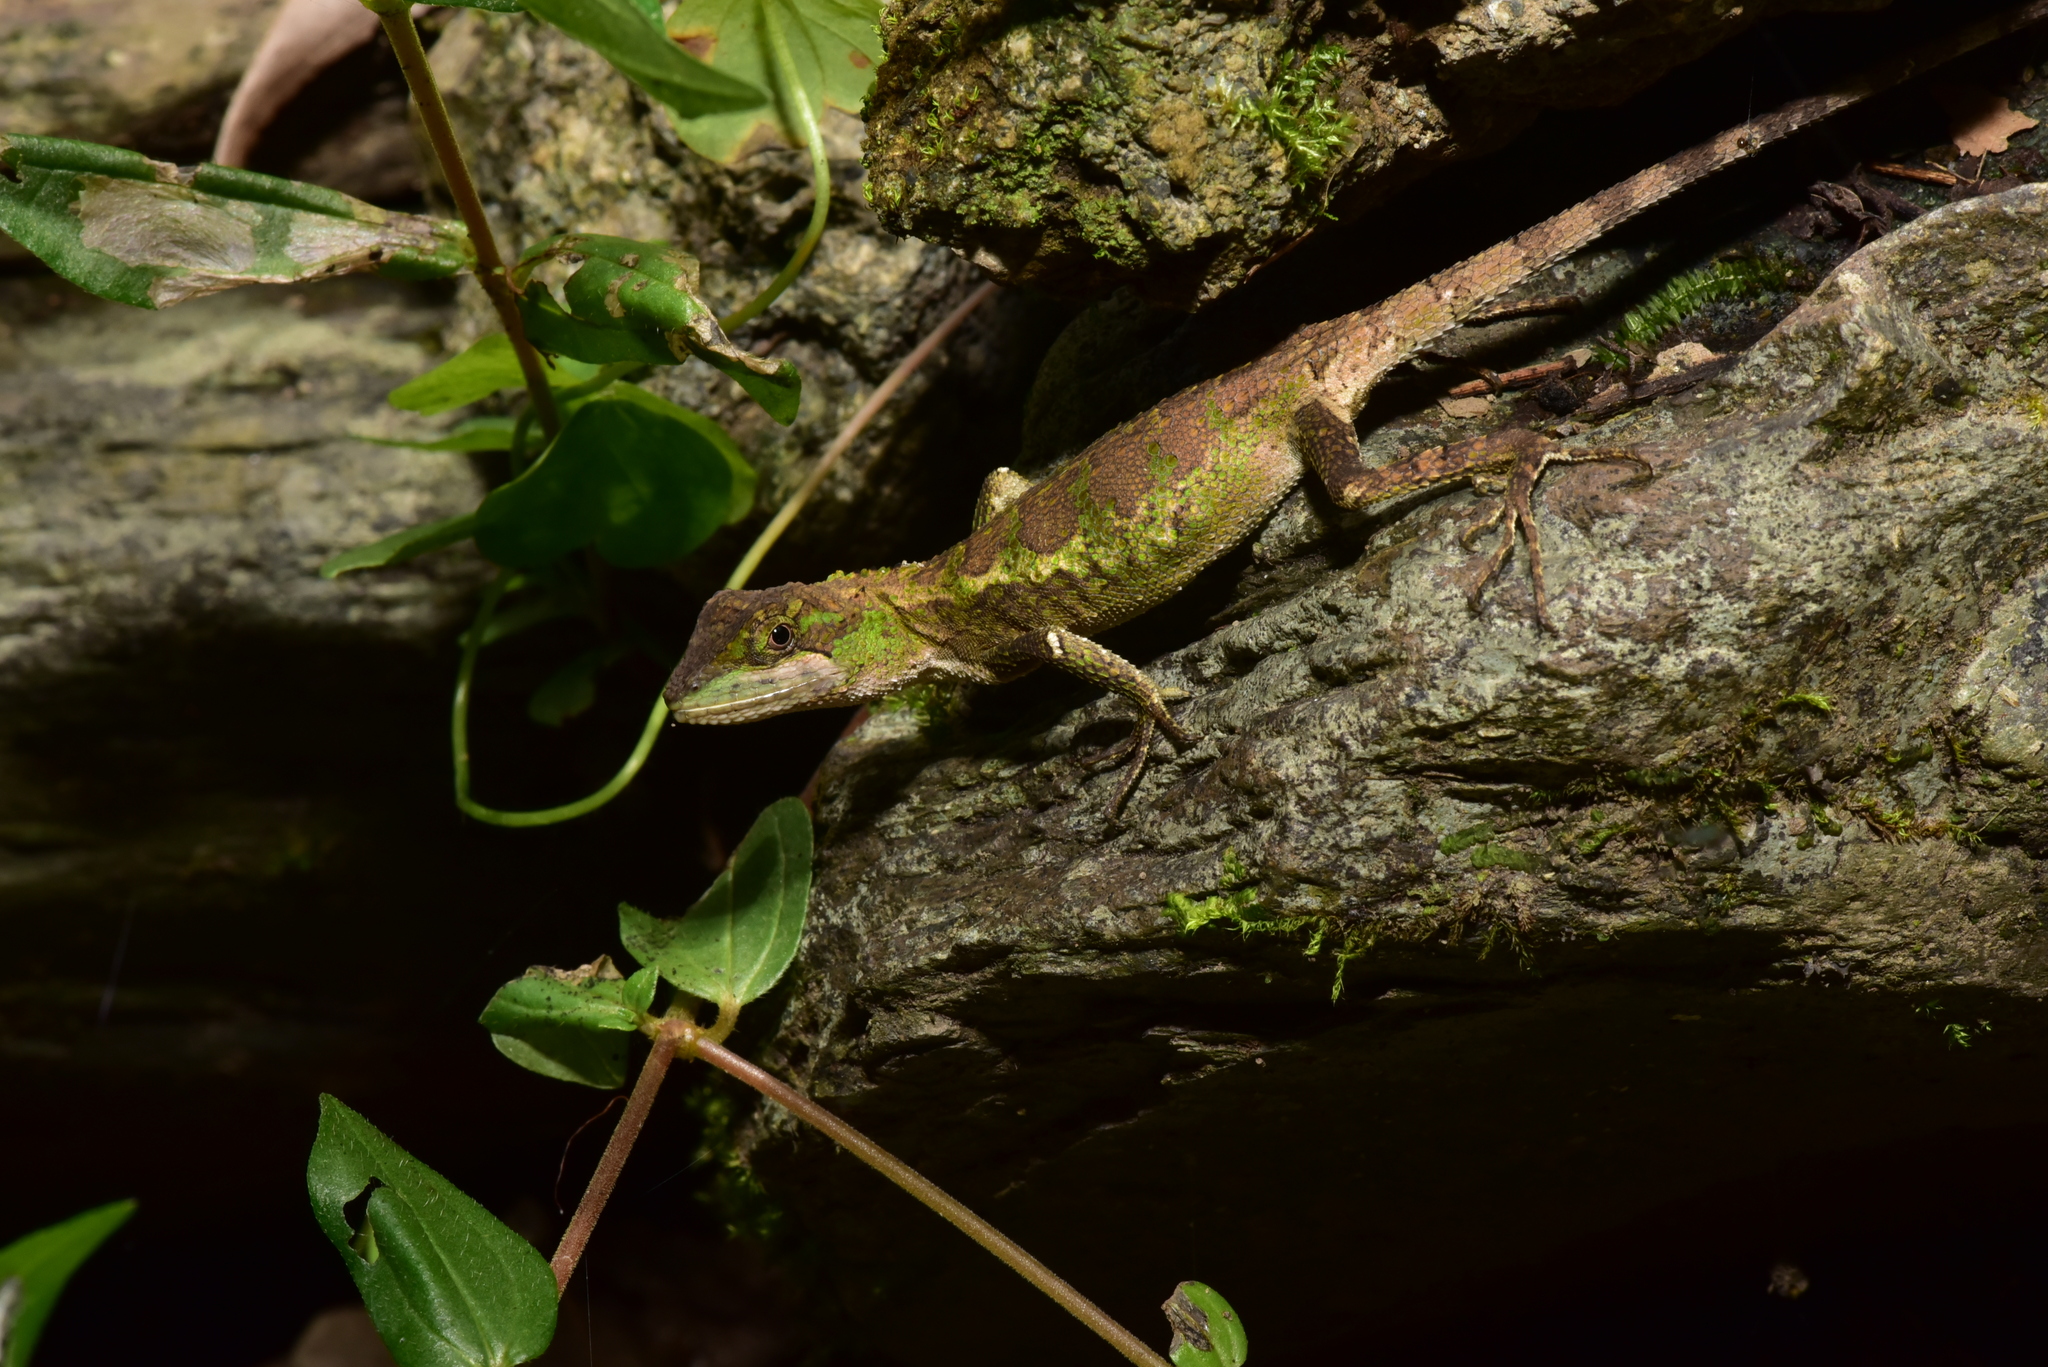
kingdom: Fungi
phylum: Basidiomycota
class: Agaricomycetes
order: Boletales
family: Diplocystidiaceae
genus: Diploderma
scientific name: Diploderma polygonatum
